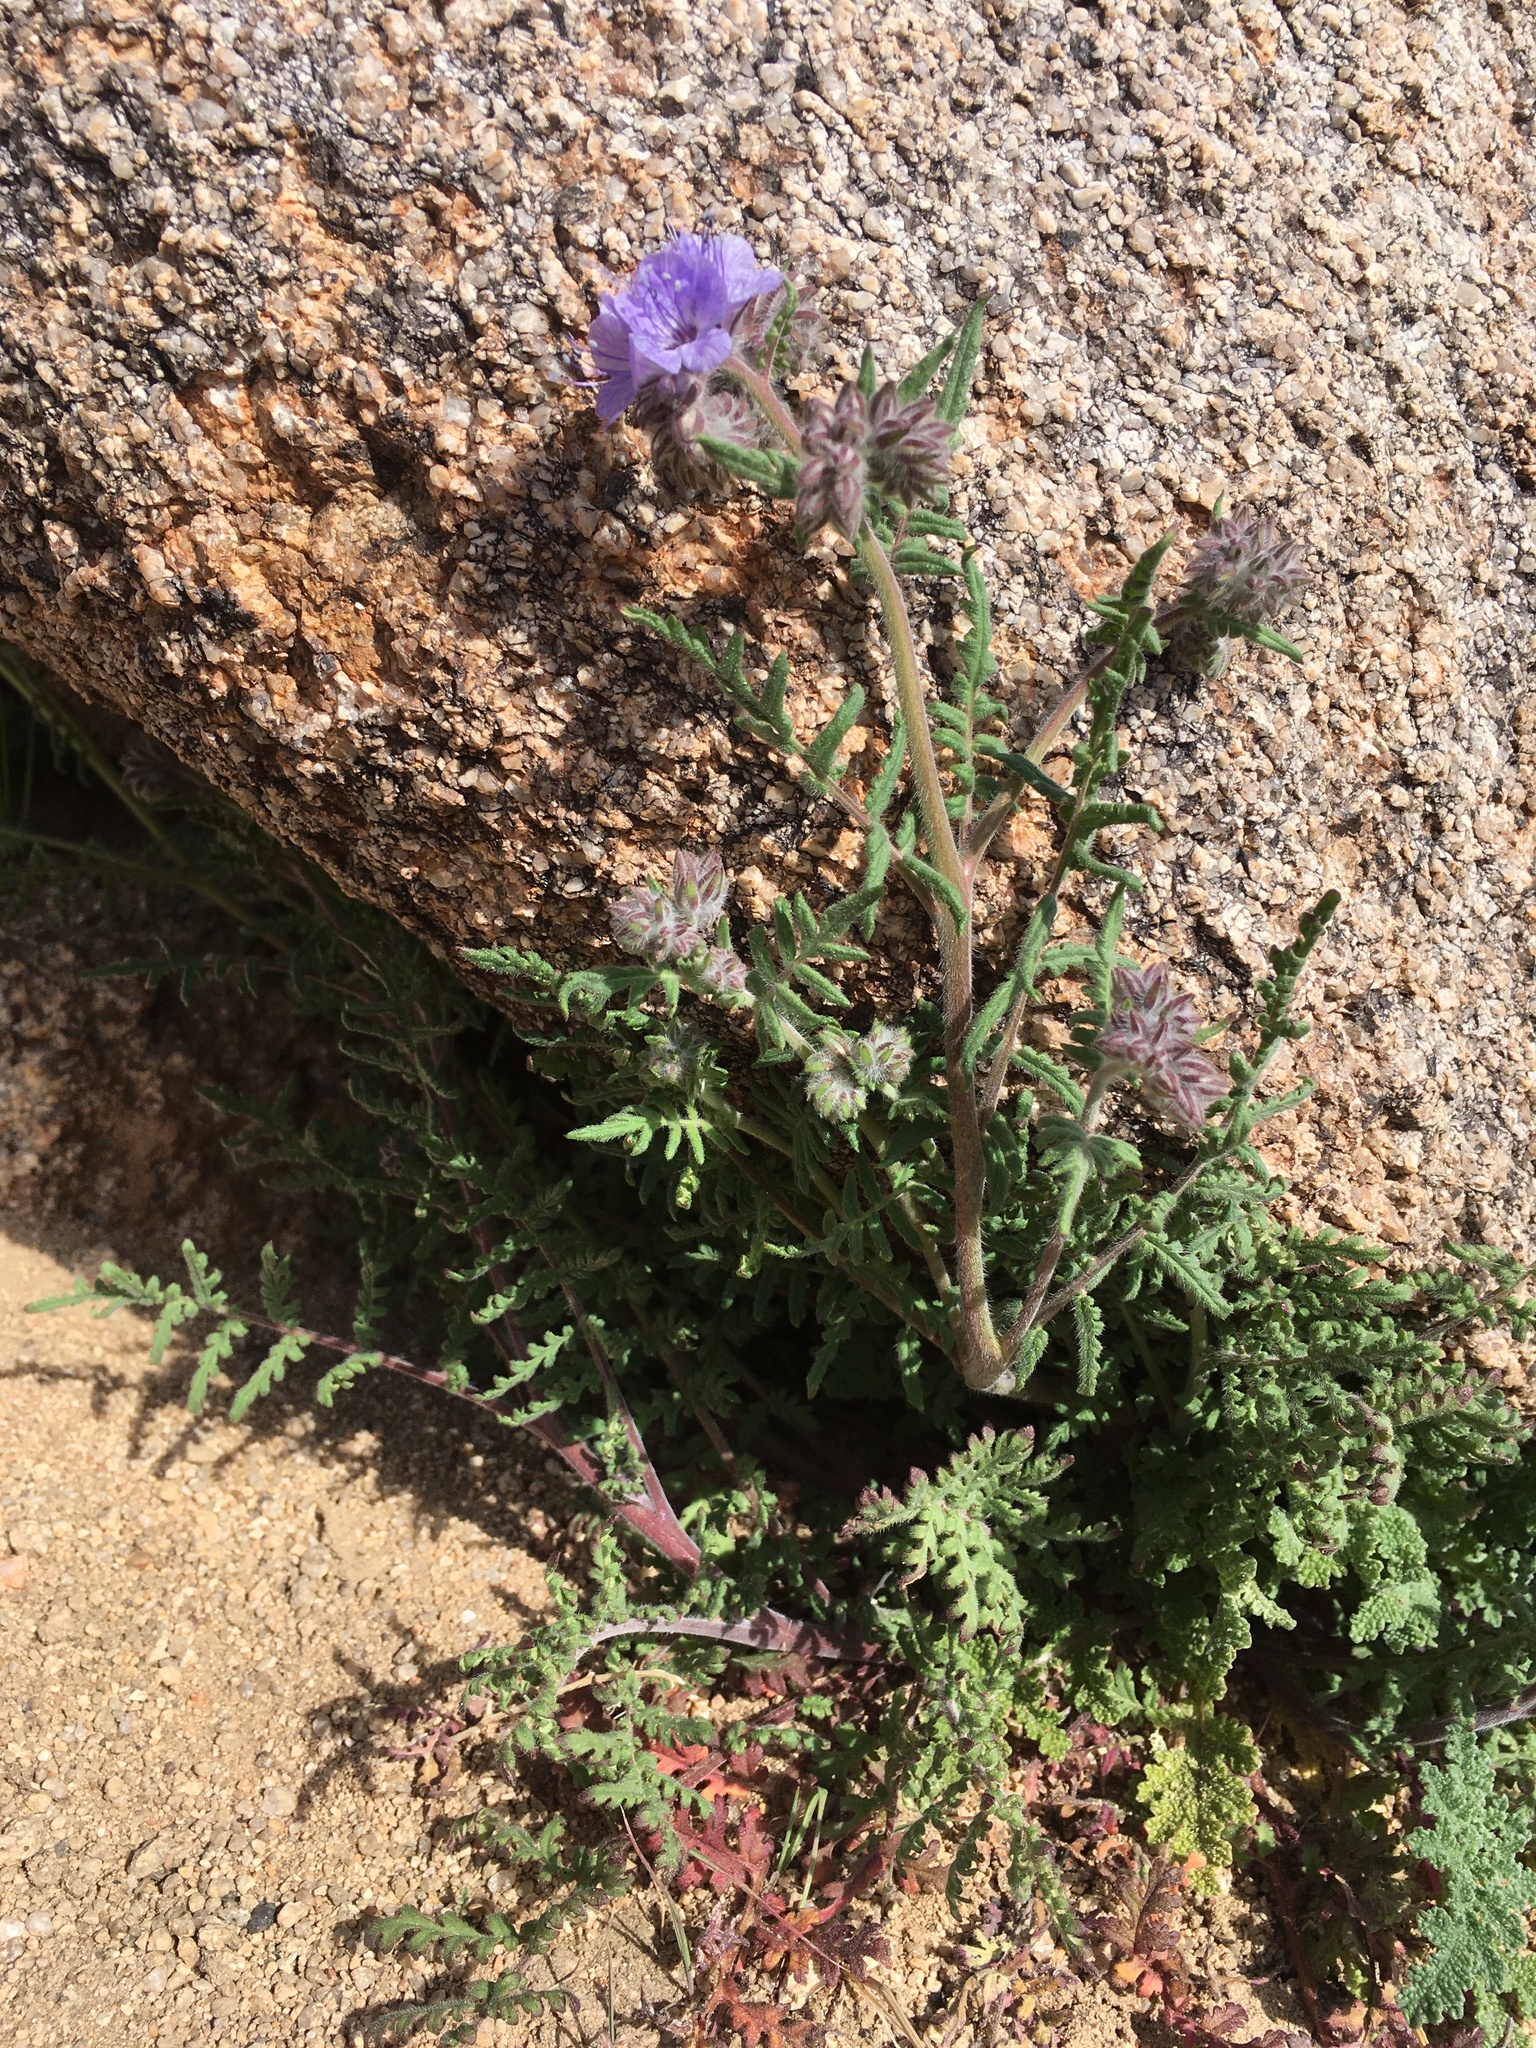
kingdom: Plantae
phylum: Tracheophyta
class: Magnoliopsida
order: Boraginales
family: Hydrophyllaceae
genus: Phacelia
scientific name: Phacelia distans
